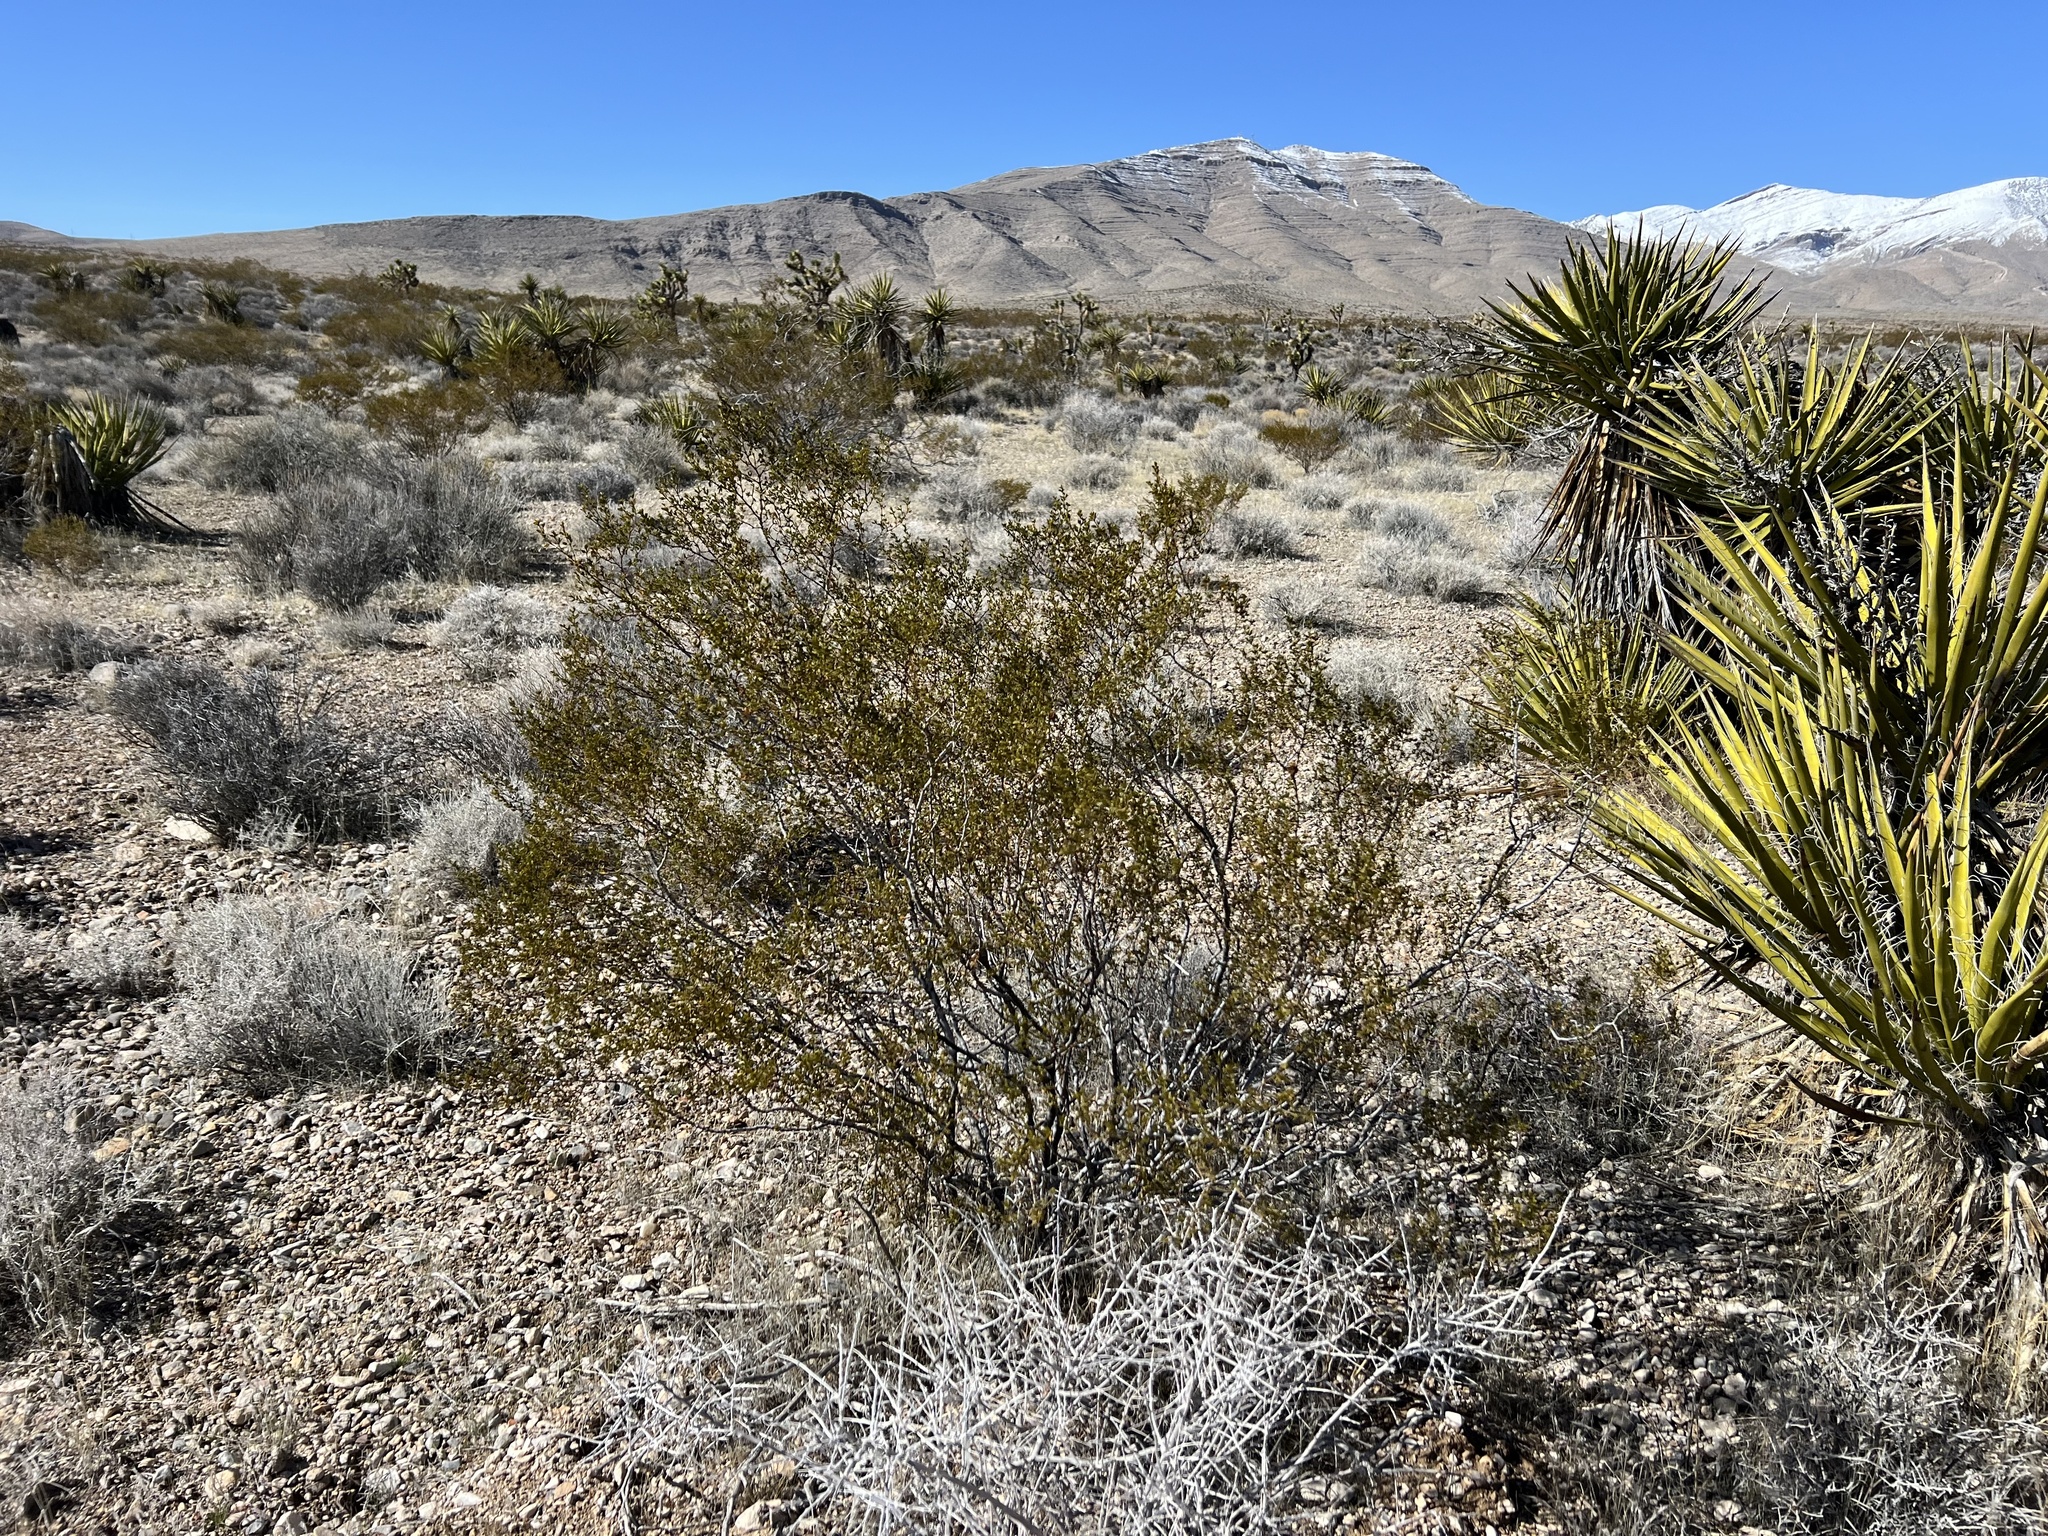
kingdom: Plantae
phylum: Tracheophyta
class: Magnoliopsida
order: Zygophyllales
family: Zygophyllaceae
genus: Larrea
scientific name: Larrea tridentata
